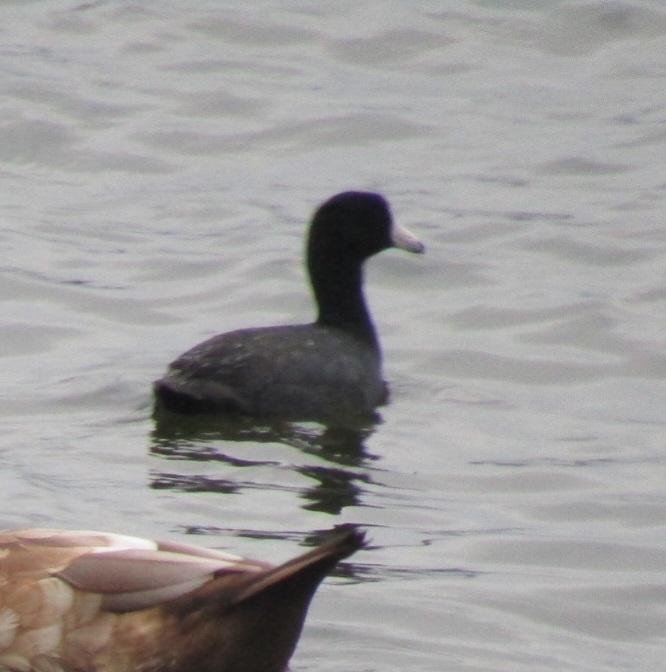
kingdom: Animalia
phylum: Chordata
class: Aves
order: Gruiformes
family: Rallidae
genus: Fulica
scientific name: Fulica americana
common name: American coot
